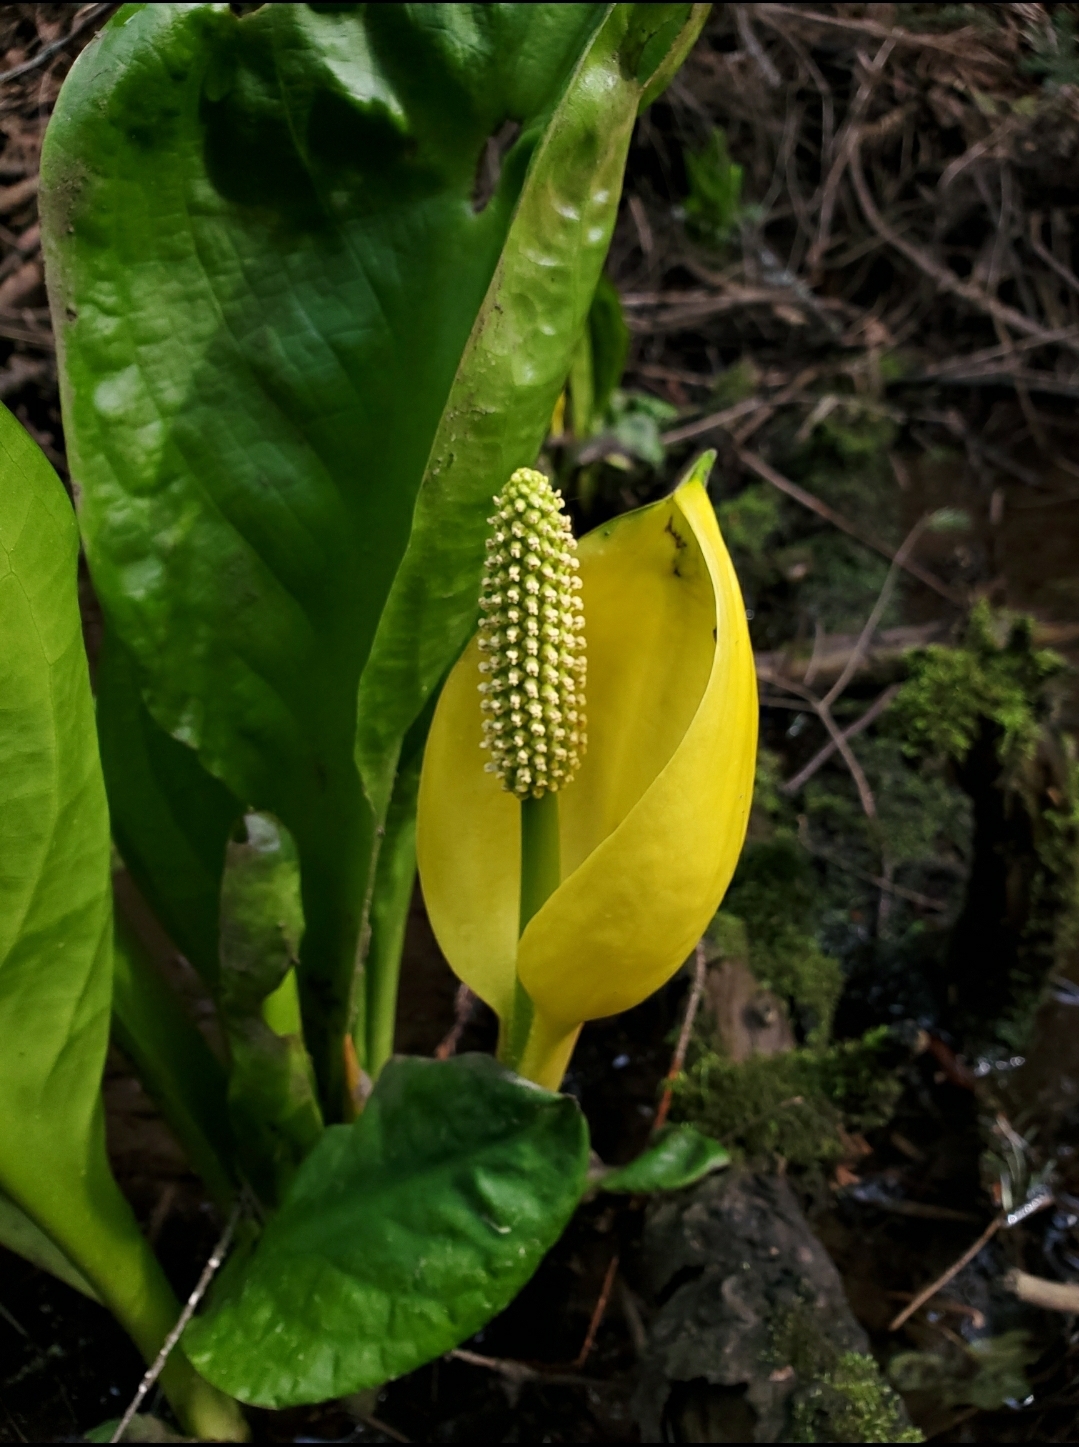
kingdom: Plantae
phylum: Tracheophyta
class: Liliopsida
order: Alismatales
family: Araceae
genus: Lysichiton
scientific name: Lysichiton americanus
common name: American skunk cabbage
